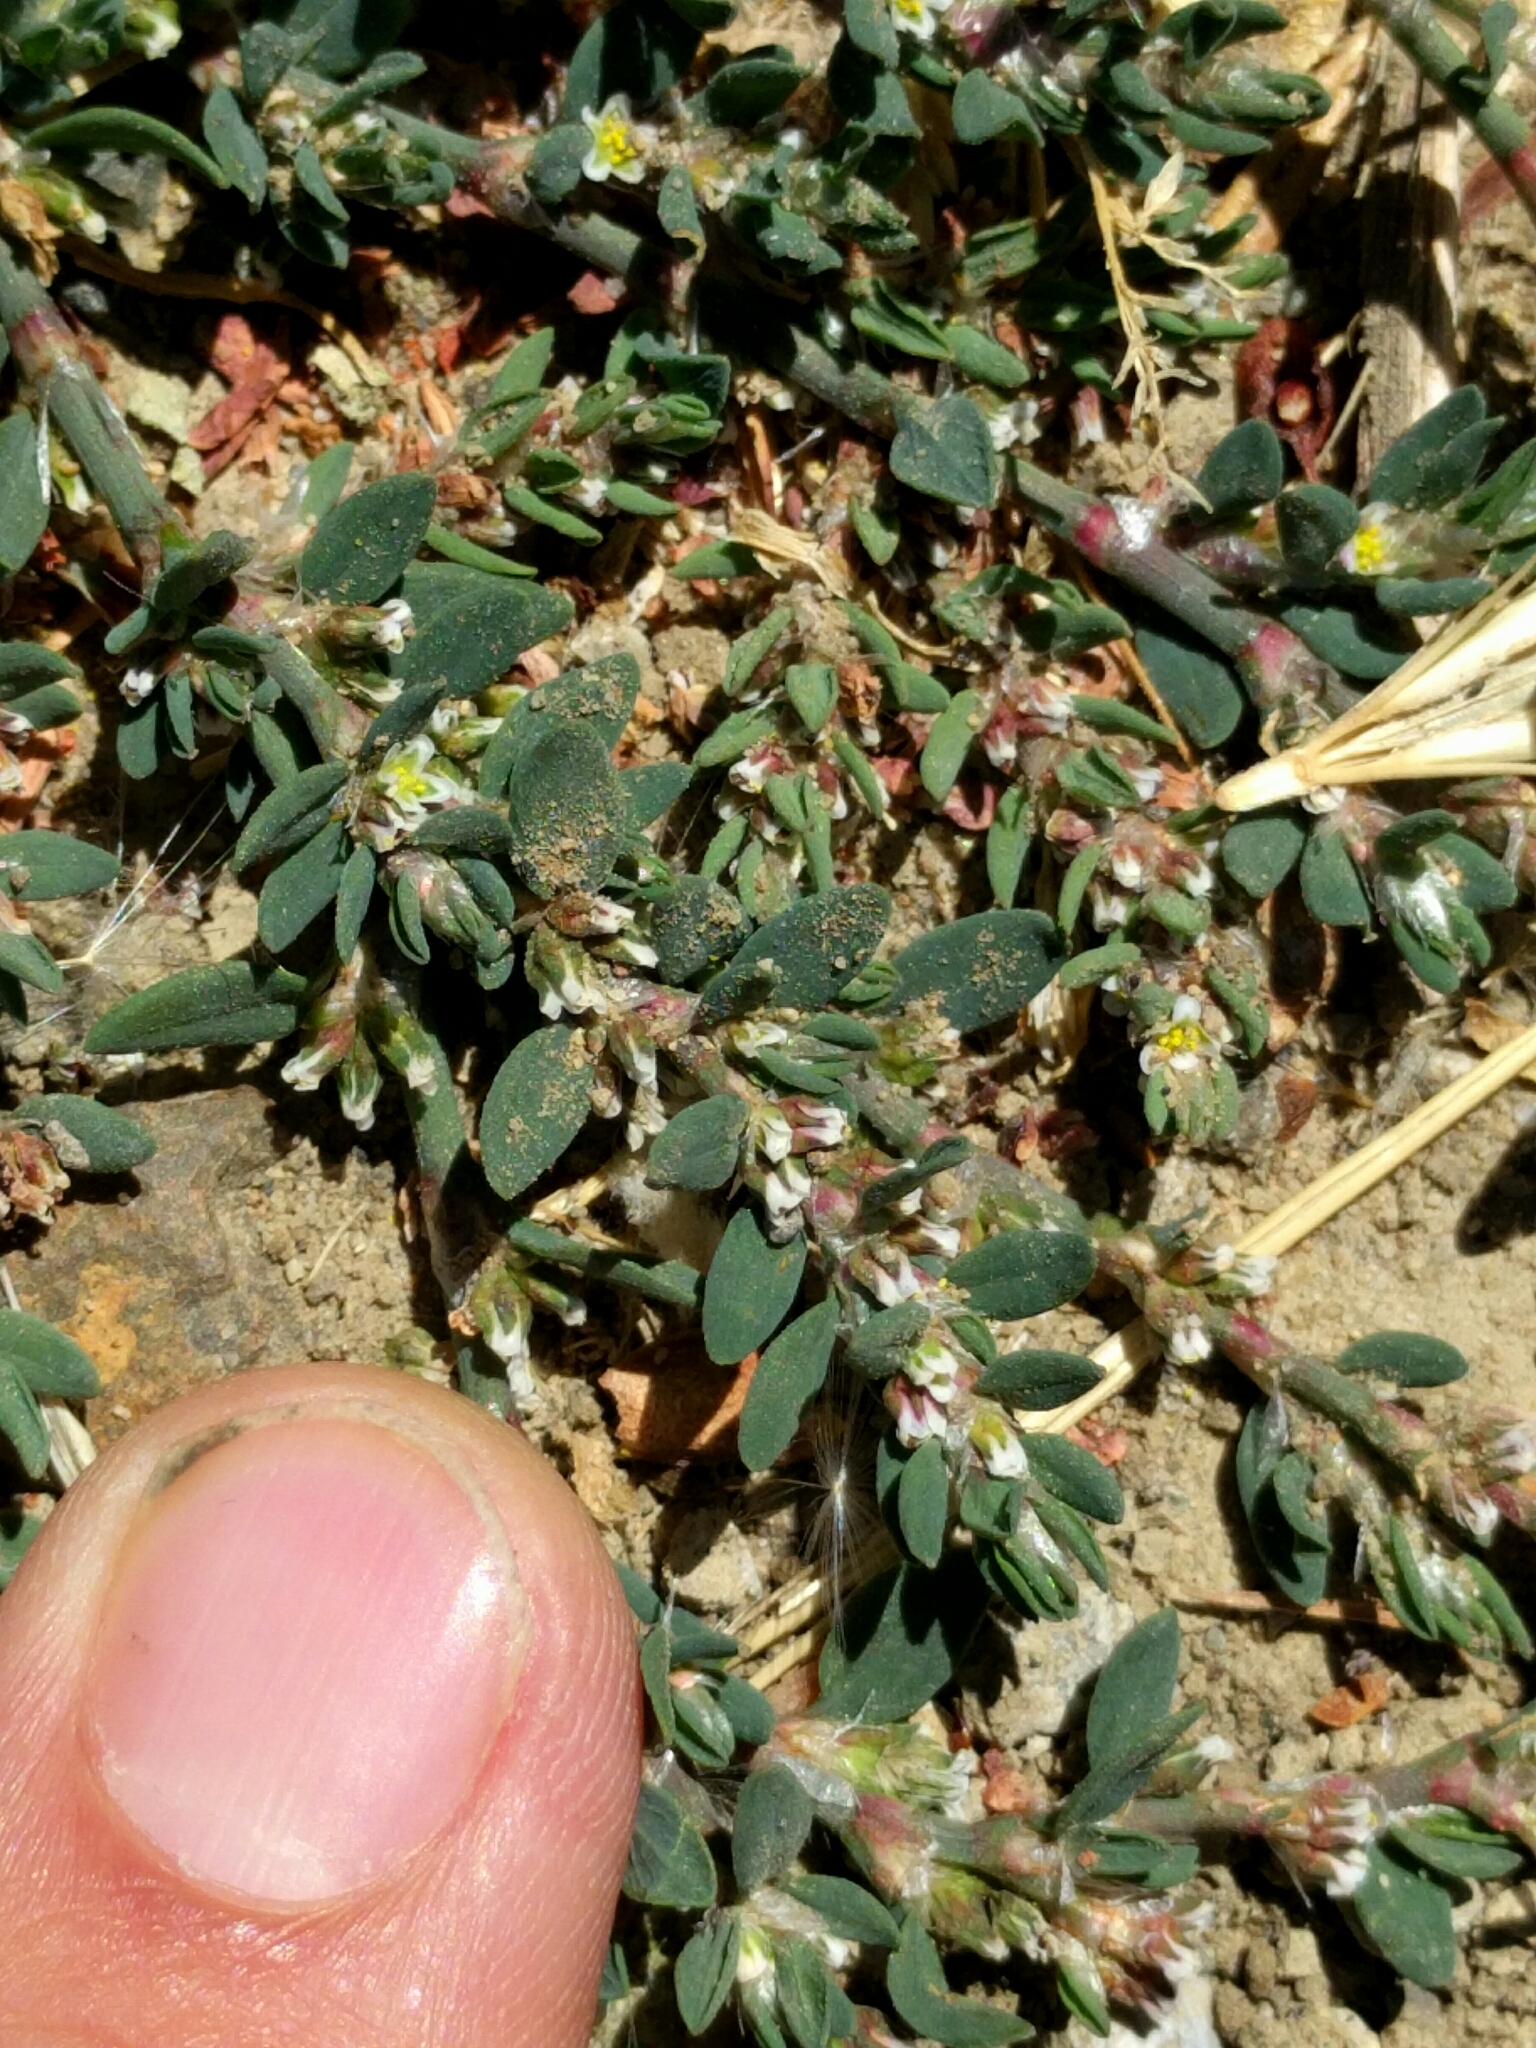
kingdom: Plantae
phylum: Tracheophyta
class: Magnoliopsida
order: Caryophyllales
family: Polygonaceae
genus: Polygonum
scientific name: Polygonum aviculare
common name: Prostrate knotweed
